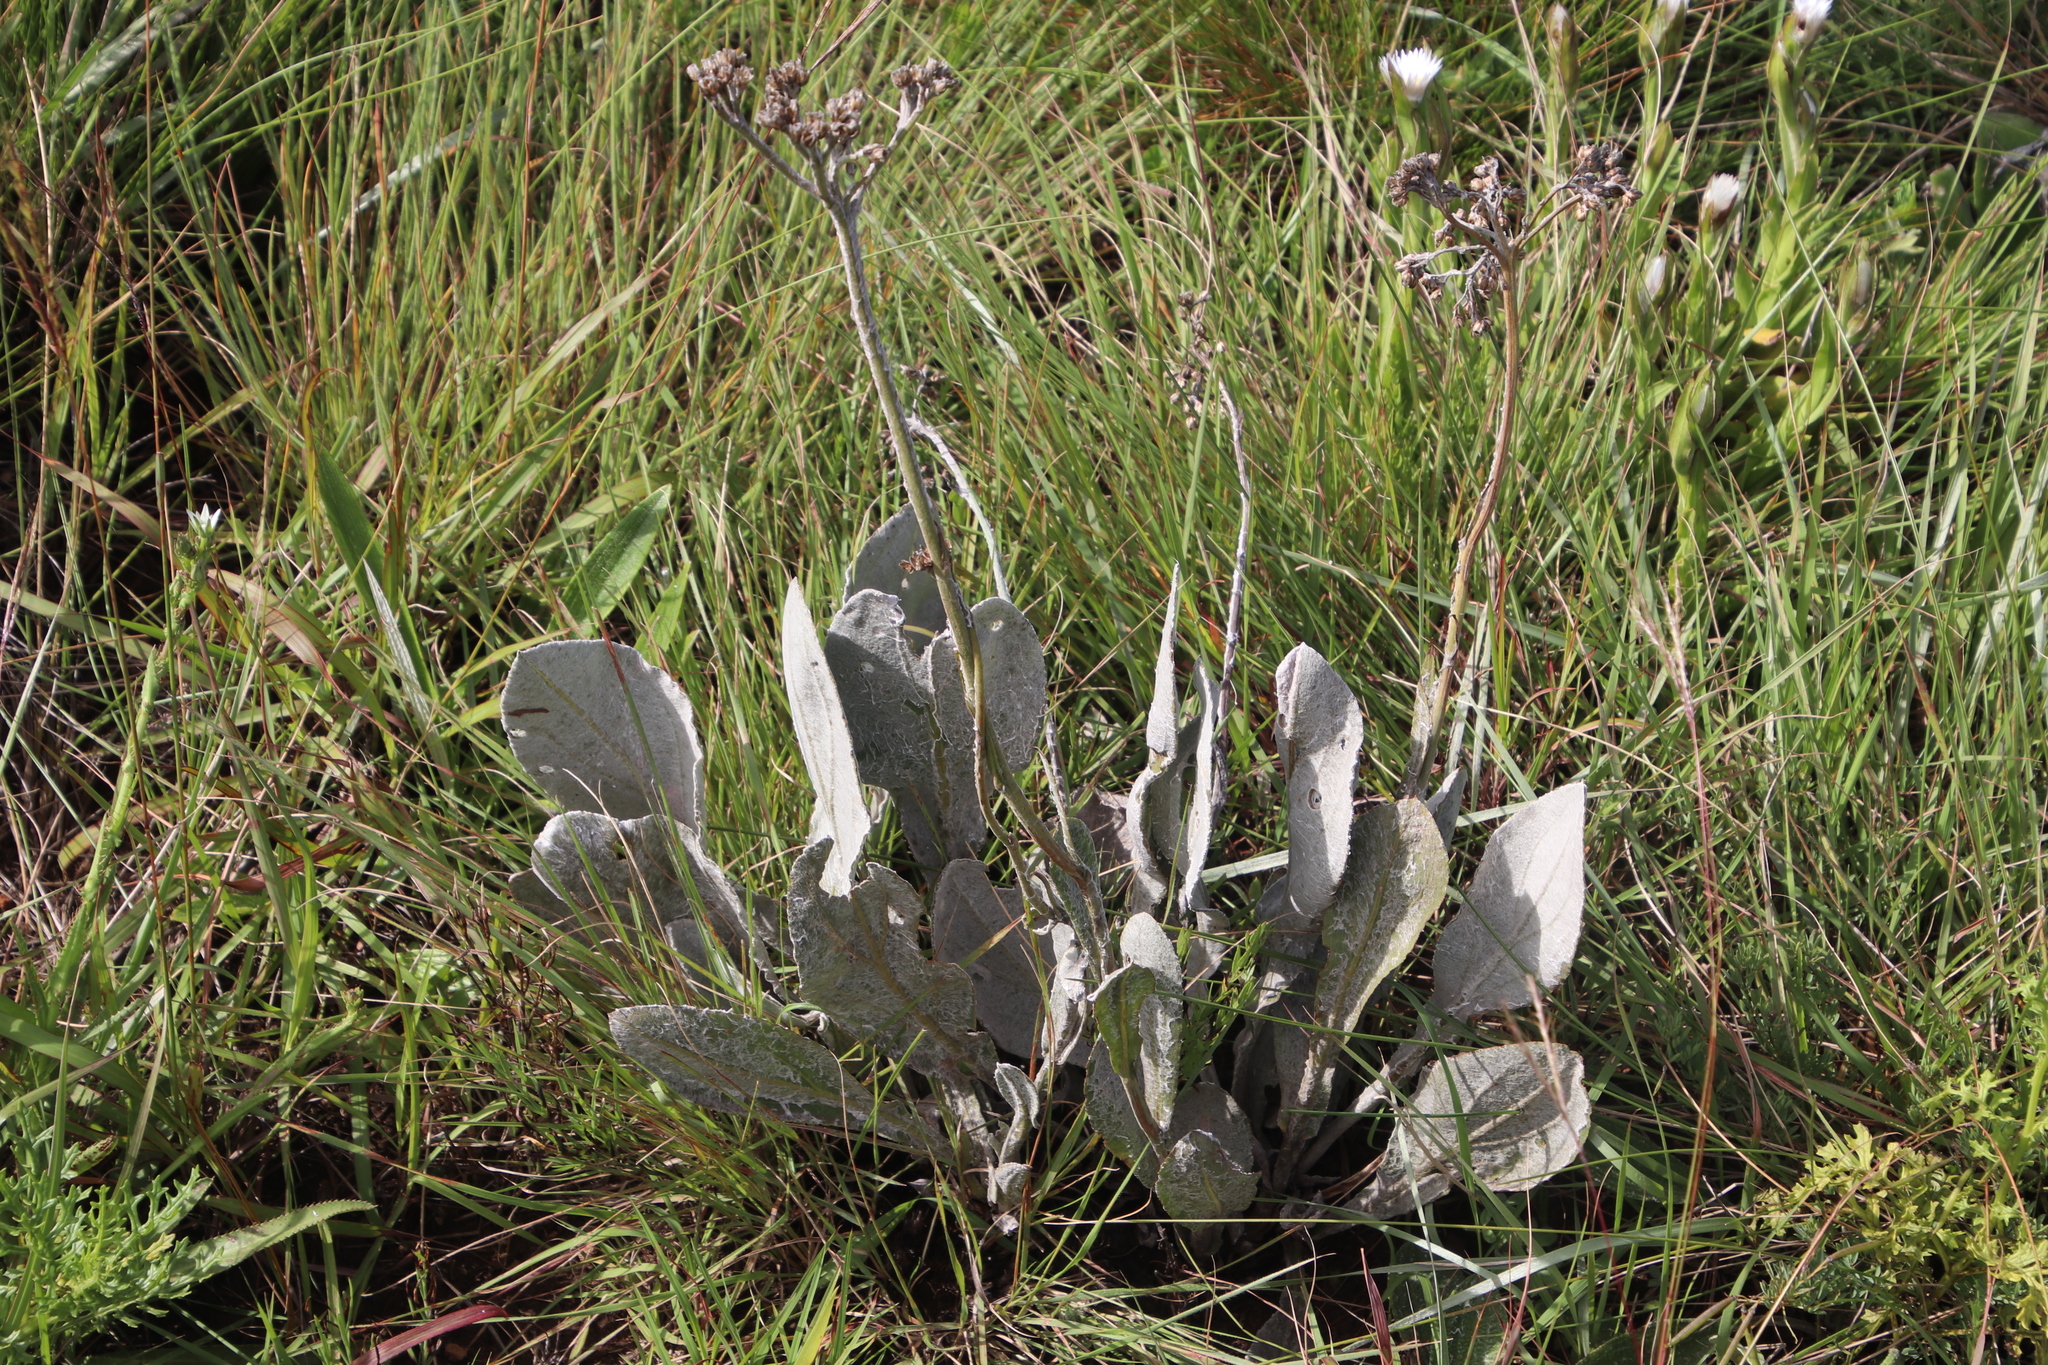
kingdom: Plantae
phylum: Tracheophyta
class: Magnoliopsida
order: Asterales
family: Asteraceae
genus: Helichrysum
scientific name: Helichrysum acutatum
